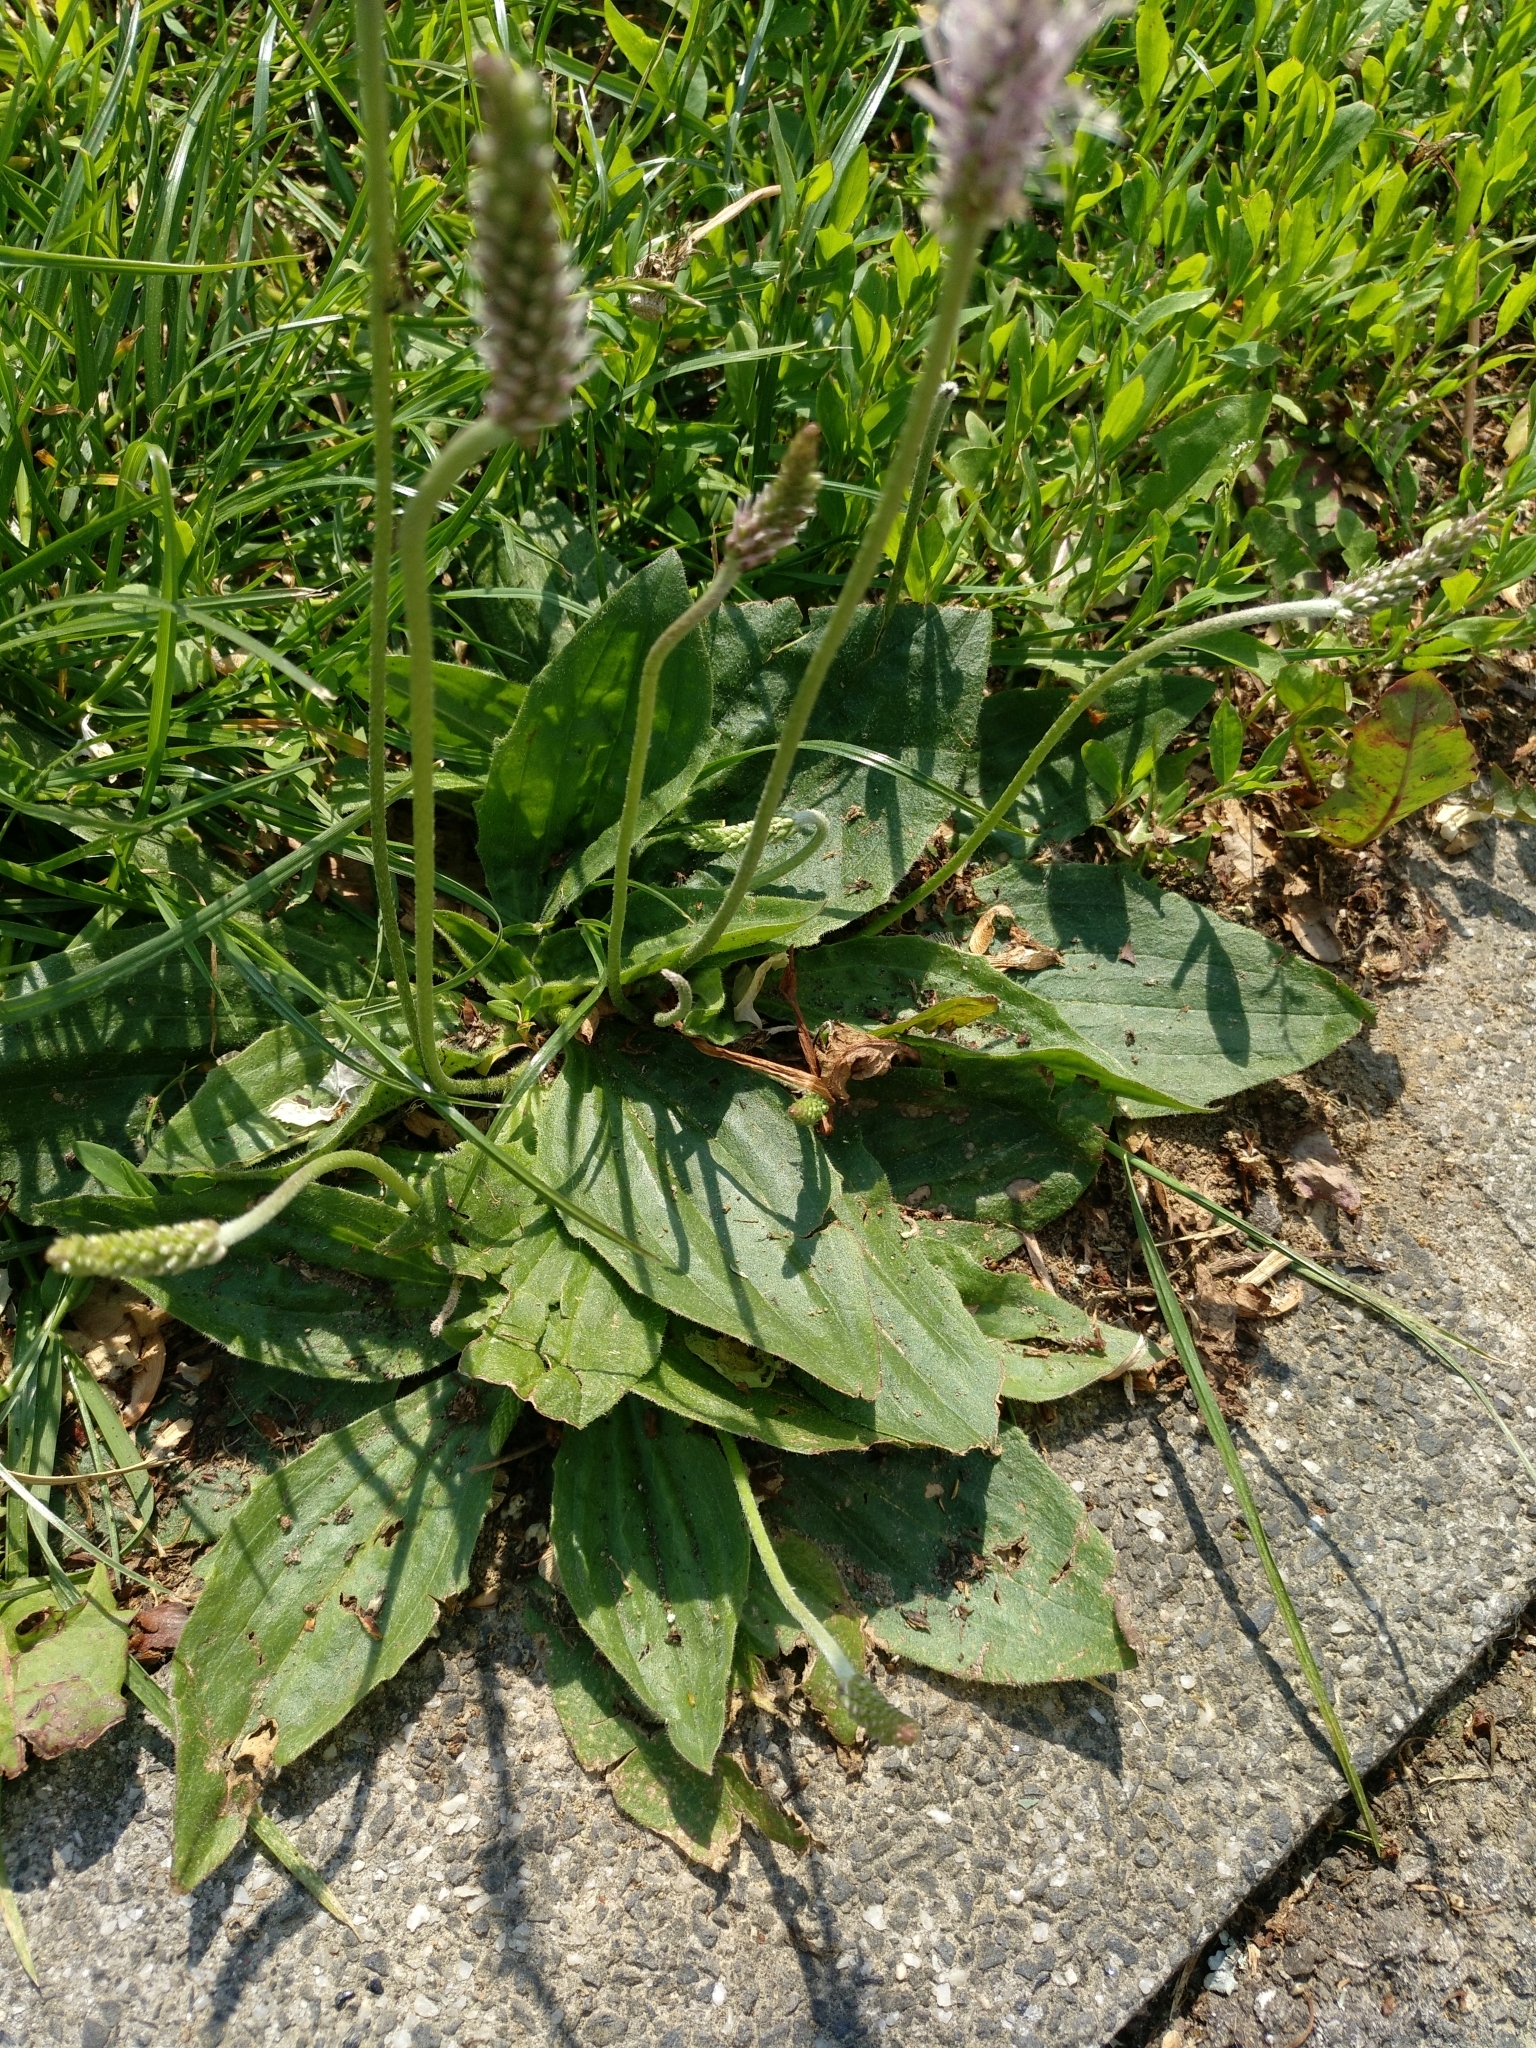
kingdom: Plantae
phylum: Tracheophyta
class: Magnoliopsida
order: Lamiales
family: Plantaginaceae
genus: Plantago
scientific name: Plantago media
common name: Hoary plantain
